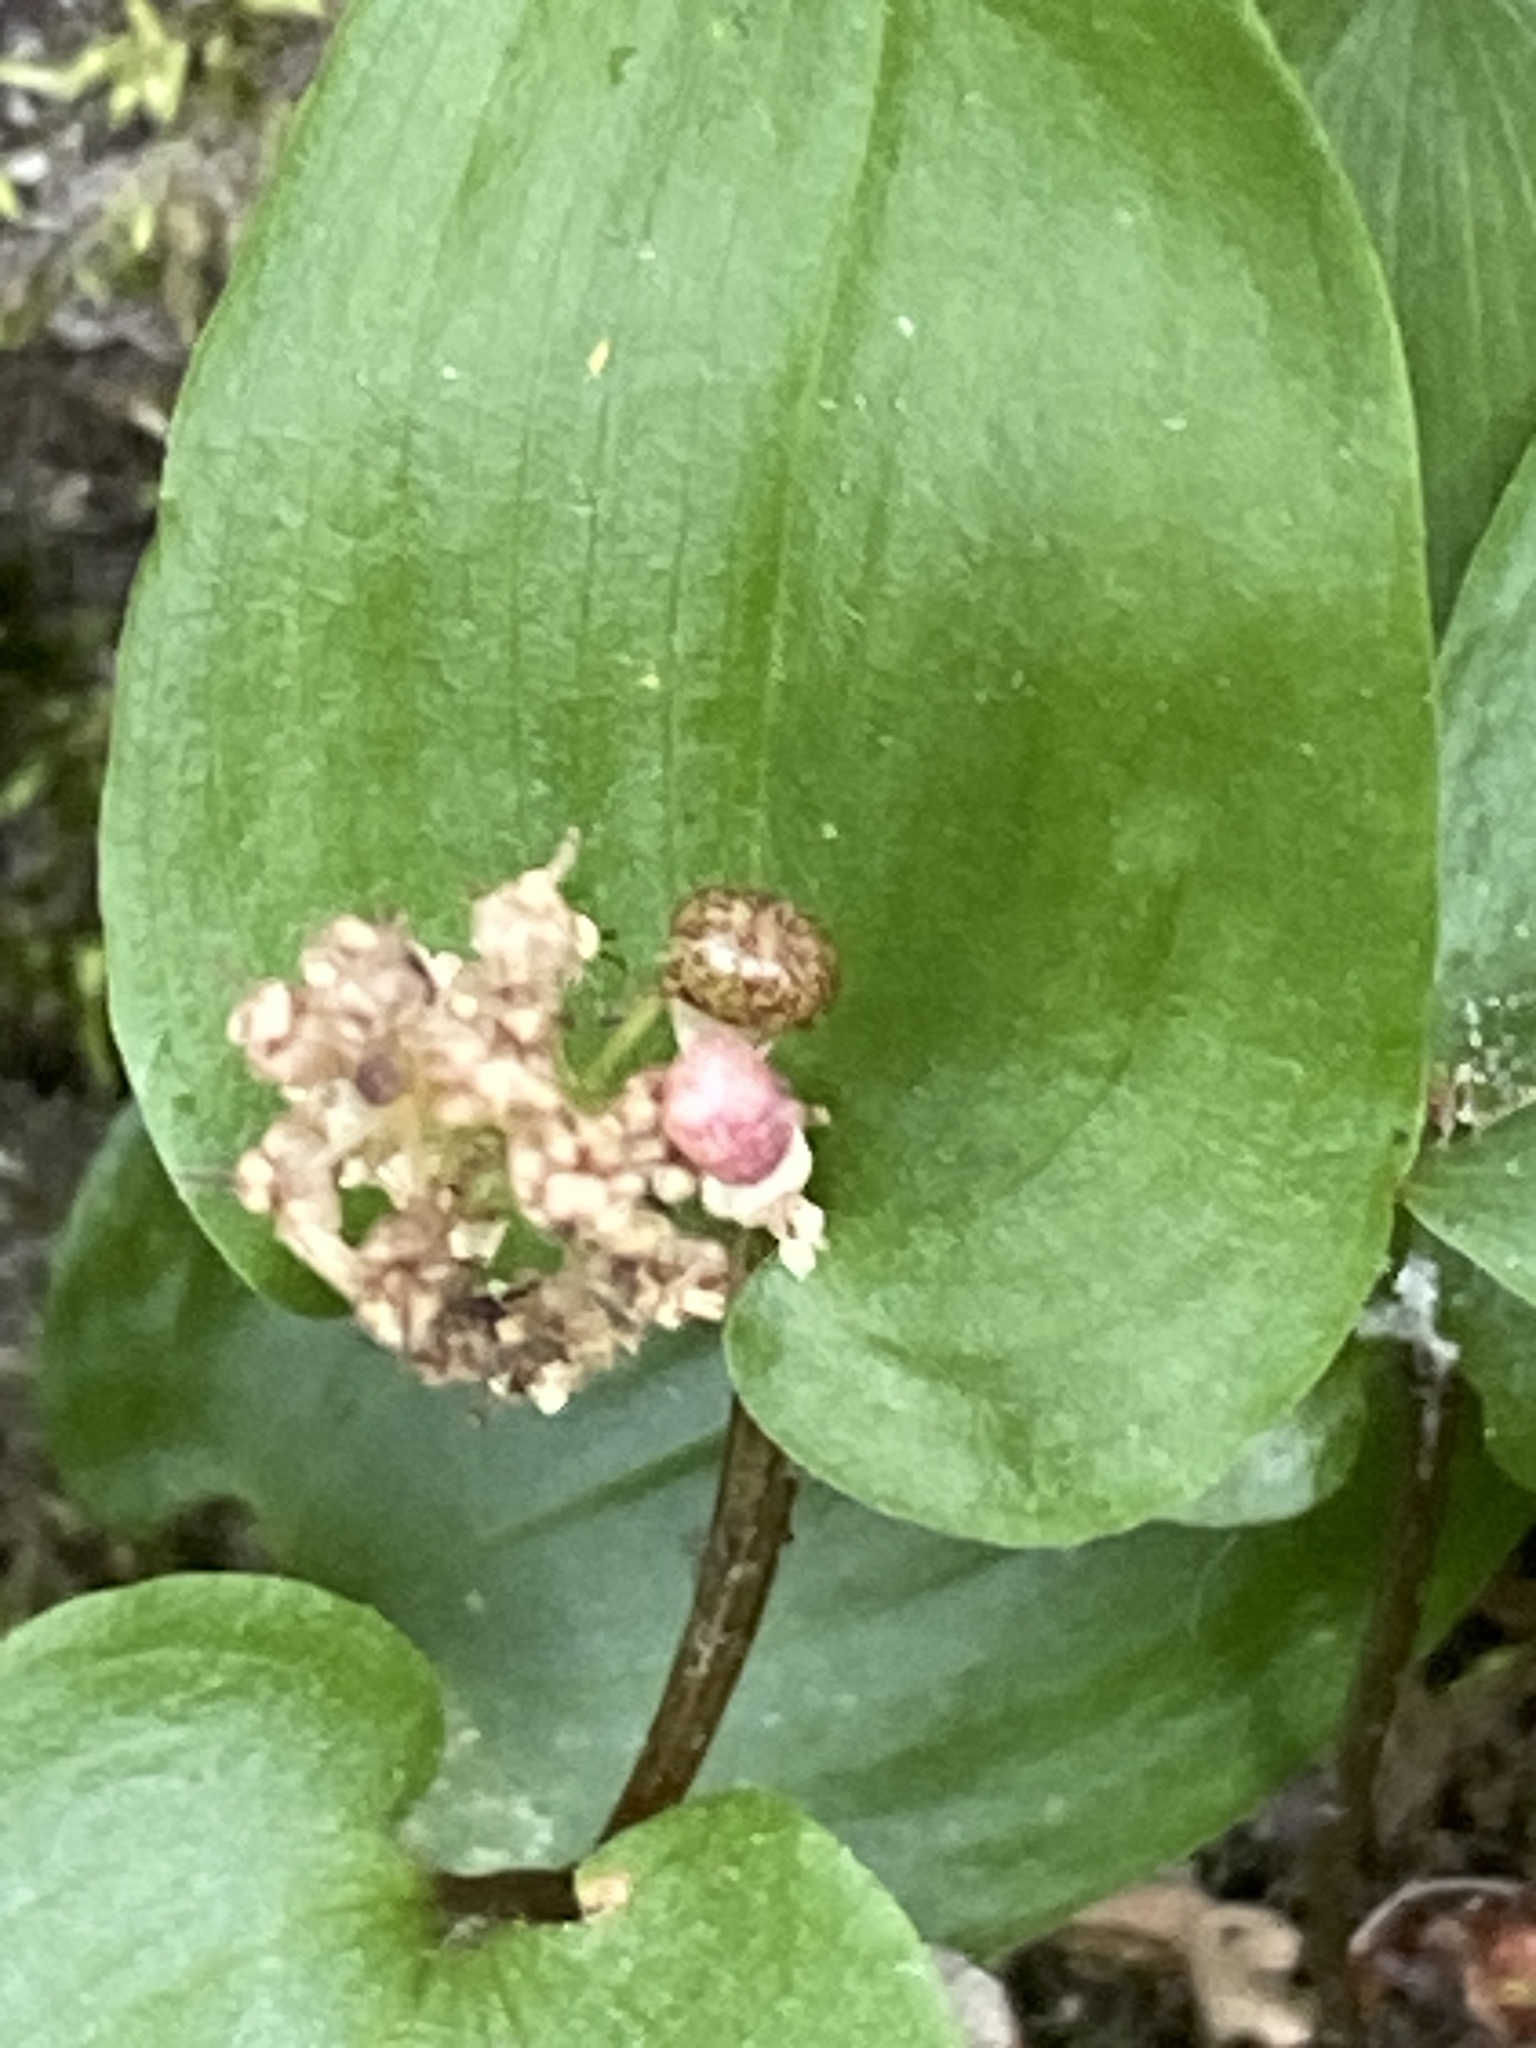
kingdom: Plantae
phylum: Tracheophyta
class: Liliopsida
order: Asparagales
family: Asparagaceae
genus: Maianthemum
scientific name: Maianthemum canadense
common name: False lily-of-the-valley
